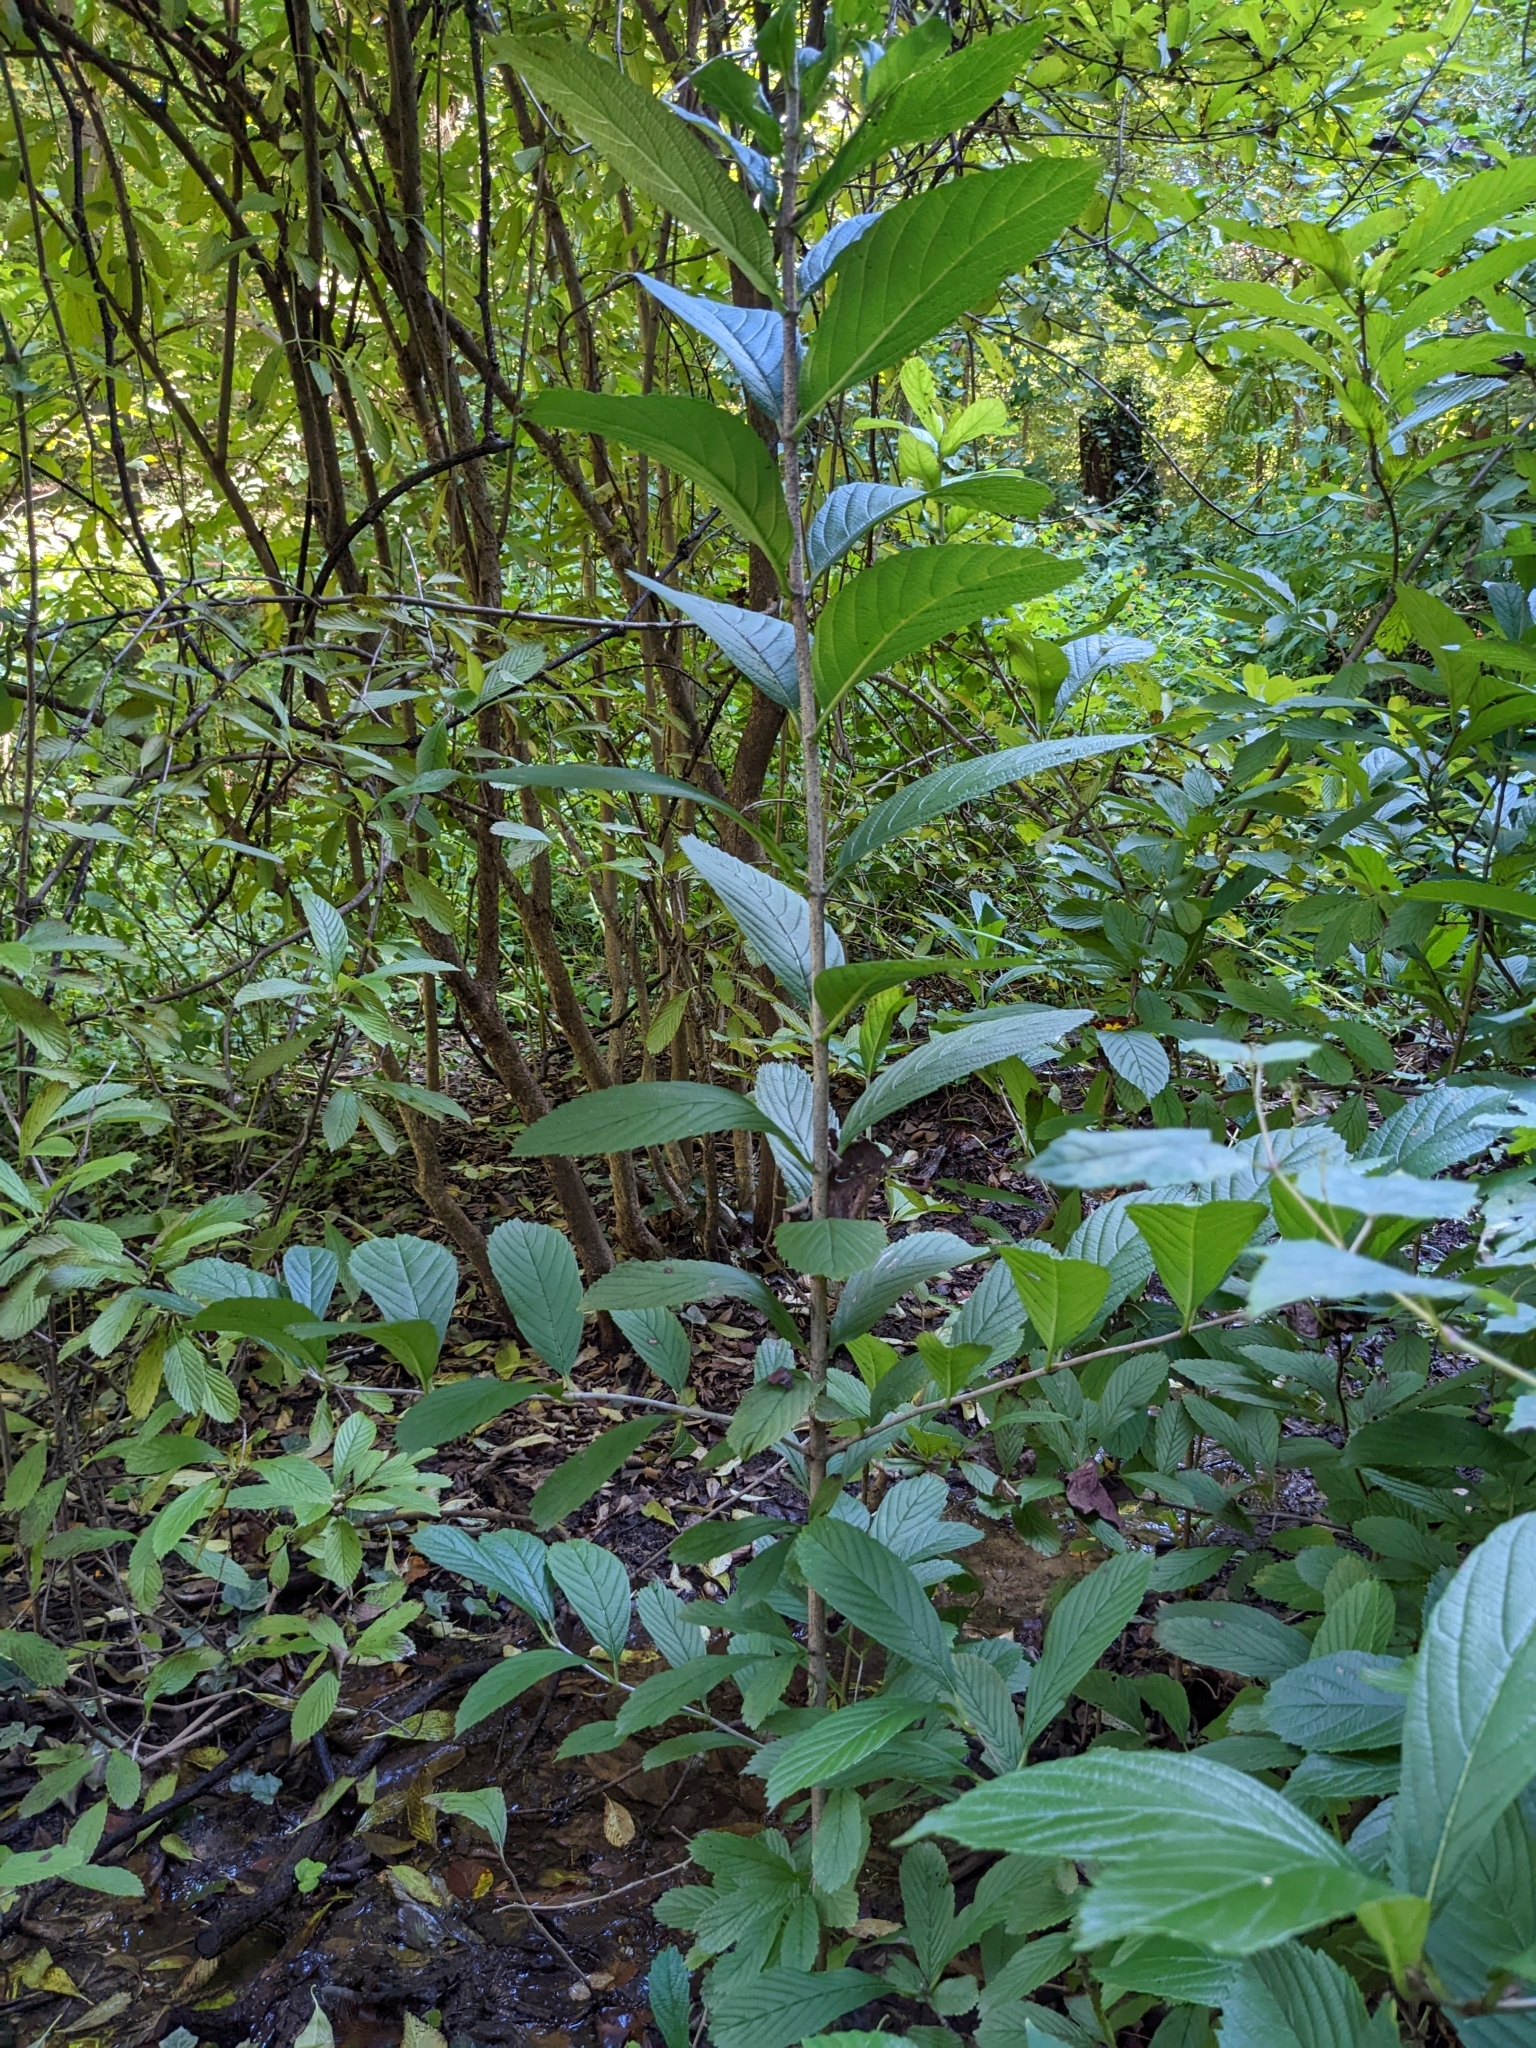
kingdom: Plantae
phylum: Tracheophyta
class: Magnoliopsida
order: Dipsacales
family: Viburnaceae
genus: Viburnum
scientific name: Viburnum sieboldii
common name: Siebold's arrowwood
